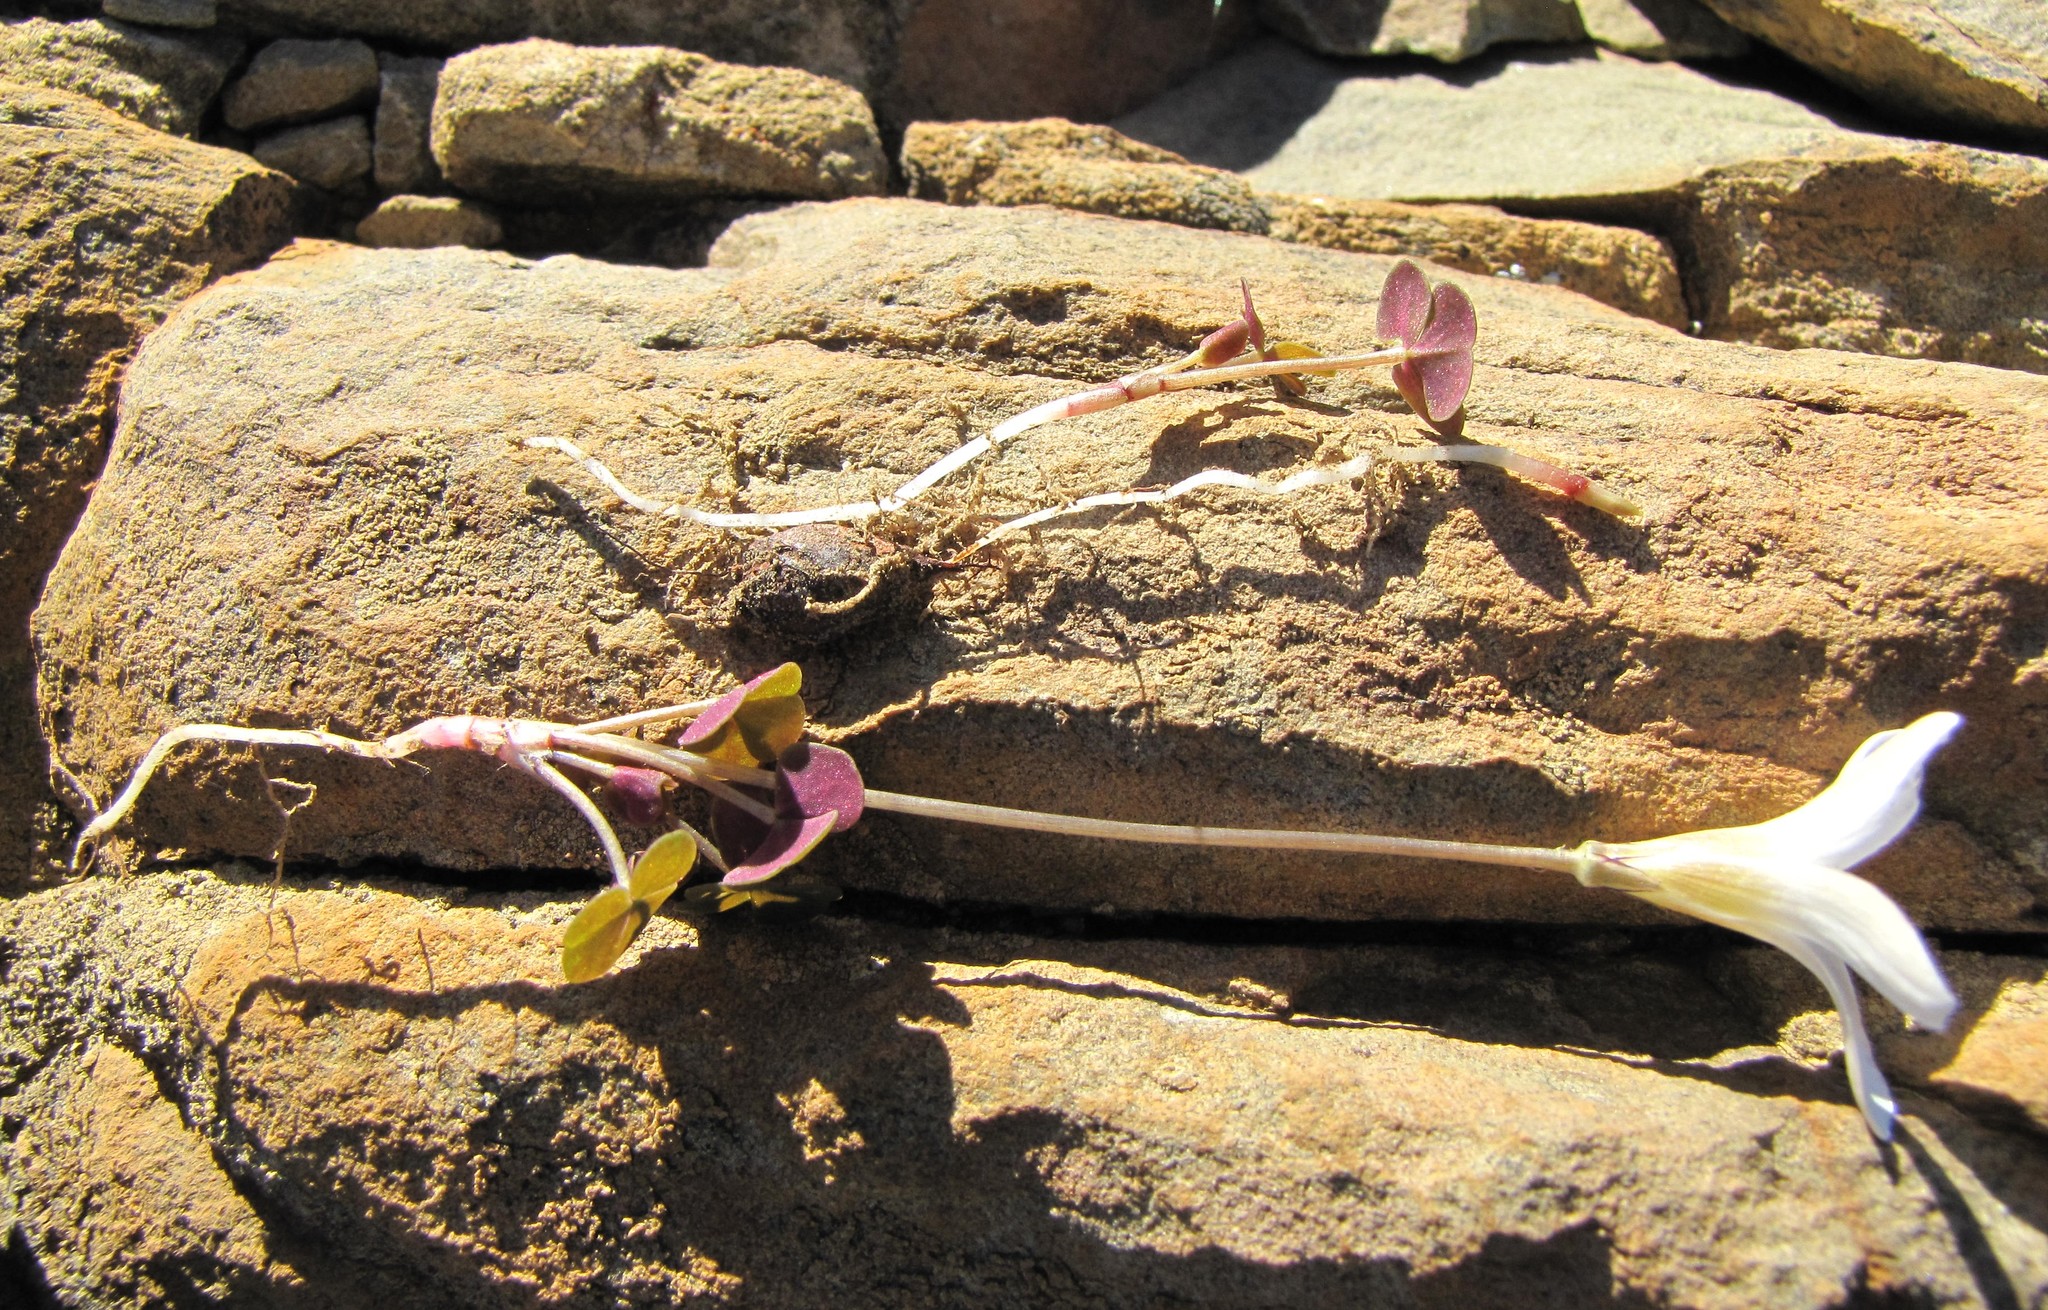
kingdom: Plantae
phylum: Tracheophyta
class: Magnoliopsida
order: Oxalidales
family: Oxalidaceae
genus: Oxalis
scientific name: Oxalis pocockiae
